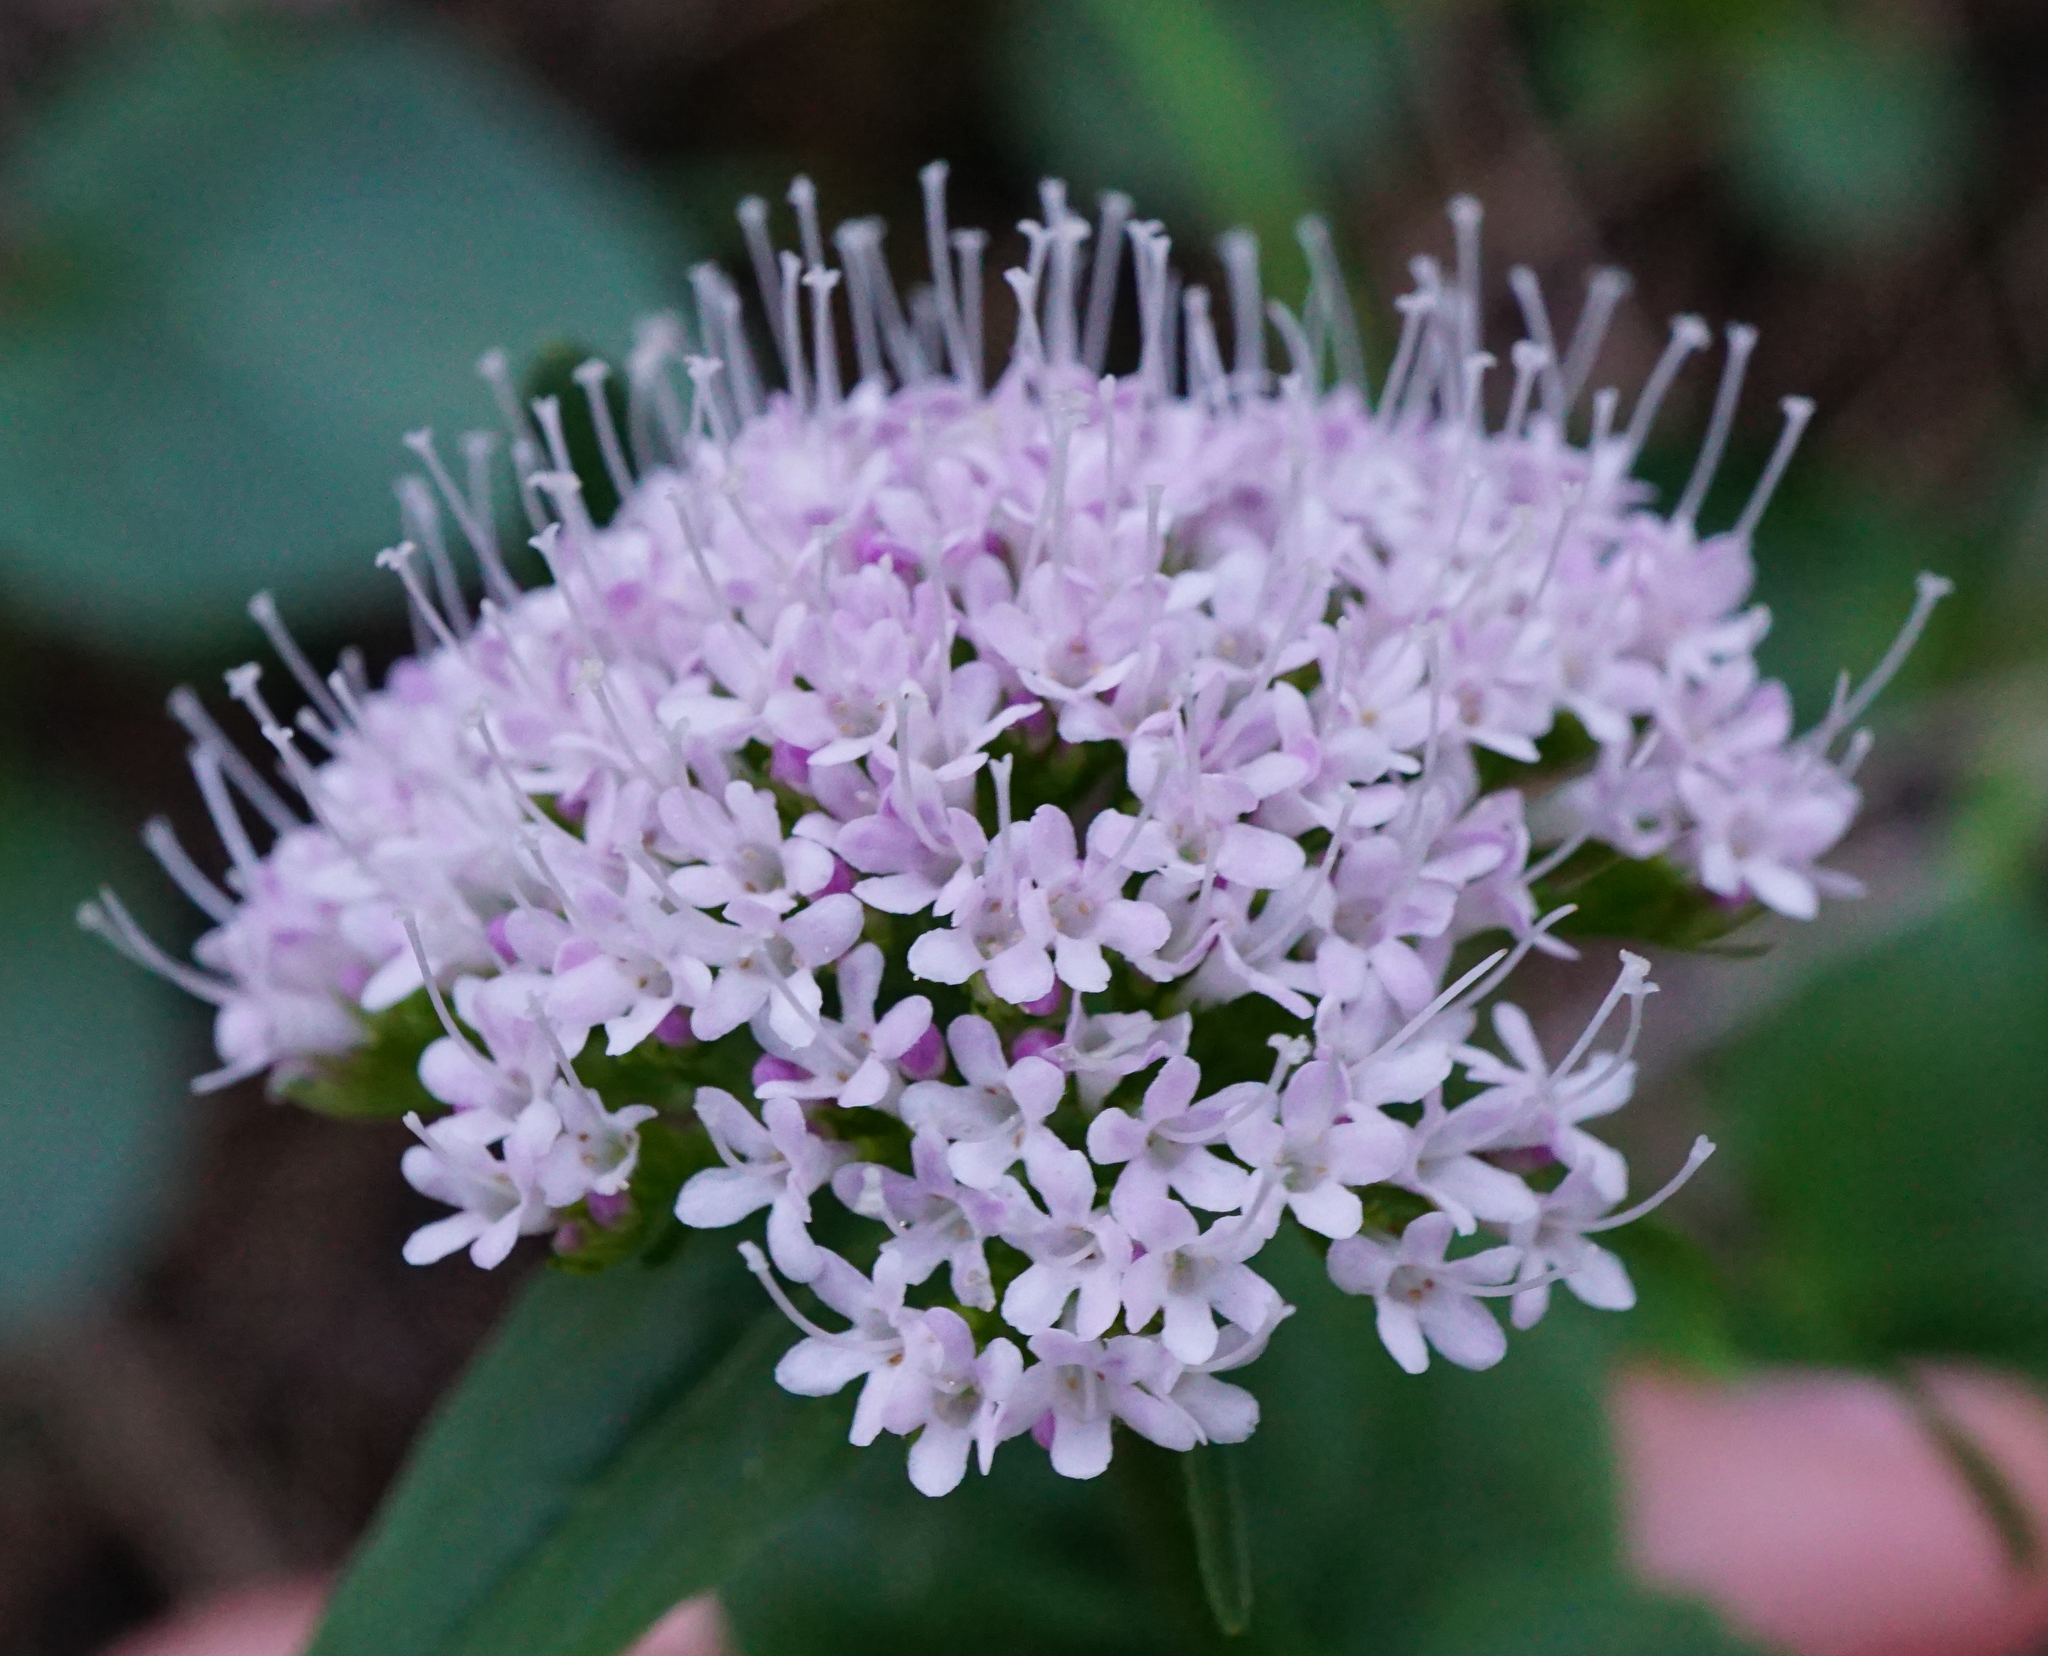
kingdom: Plantae
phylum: Tracheophyta
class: Magnoliopsida
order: Dipsacales
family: Caprifoliaceae
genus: Valeriana
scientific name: Valeriana montana
